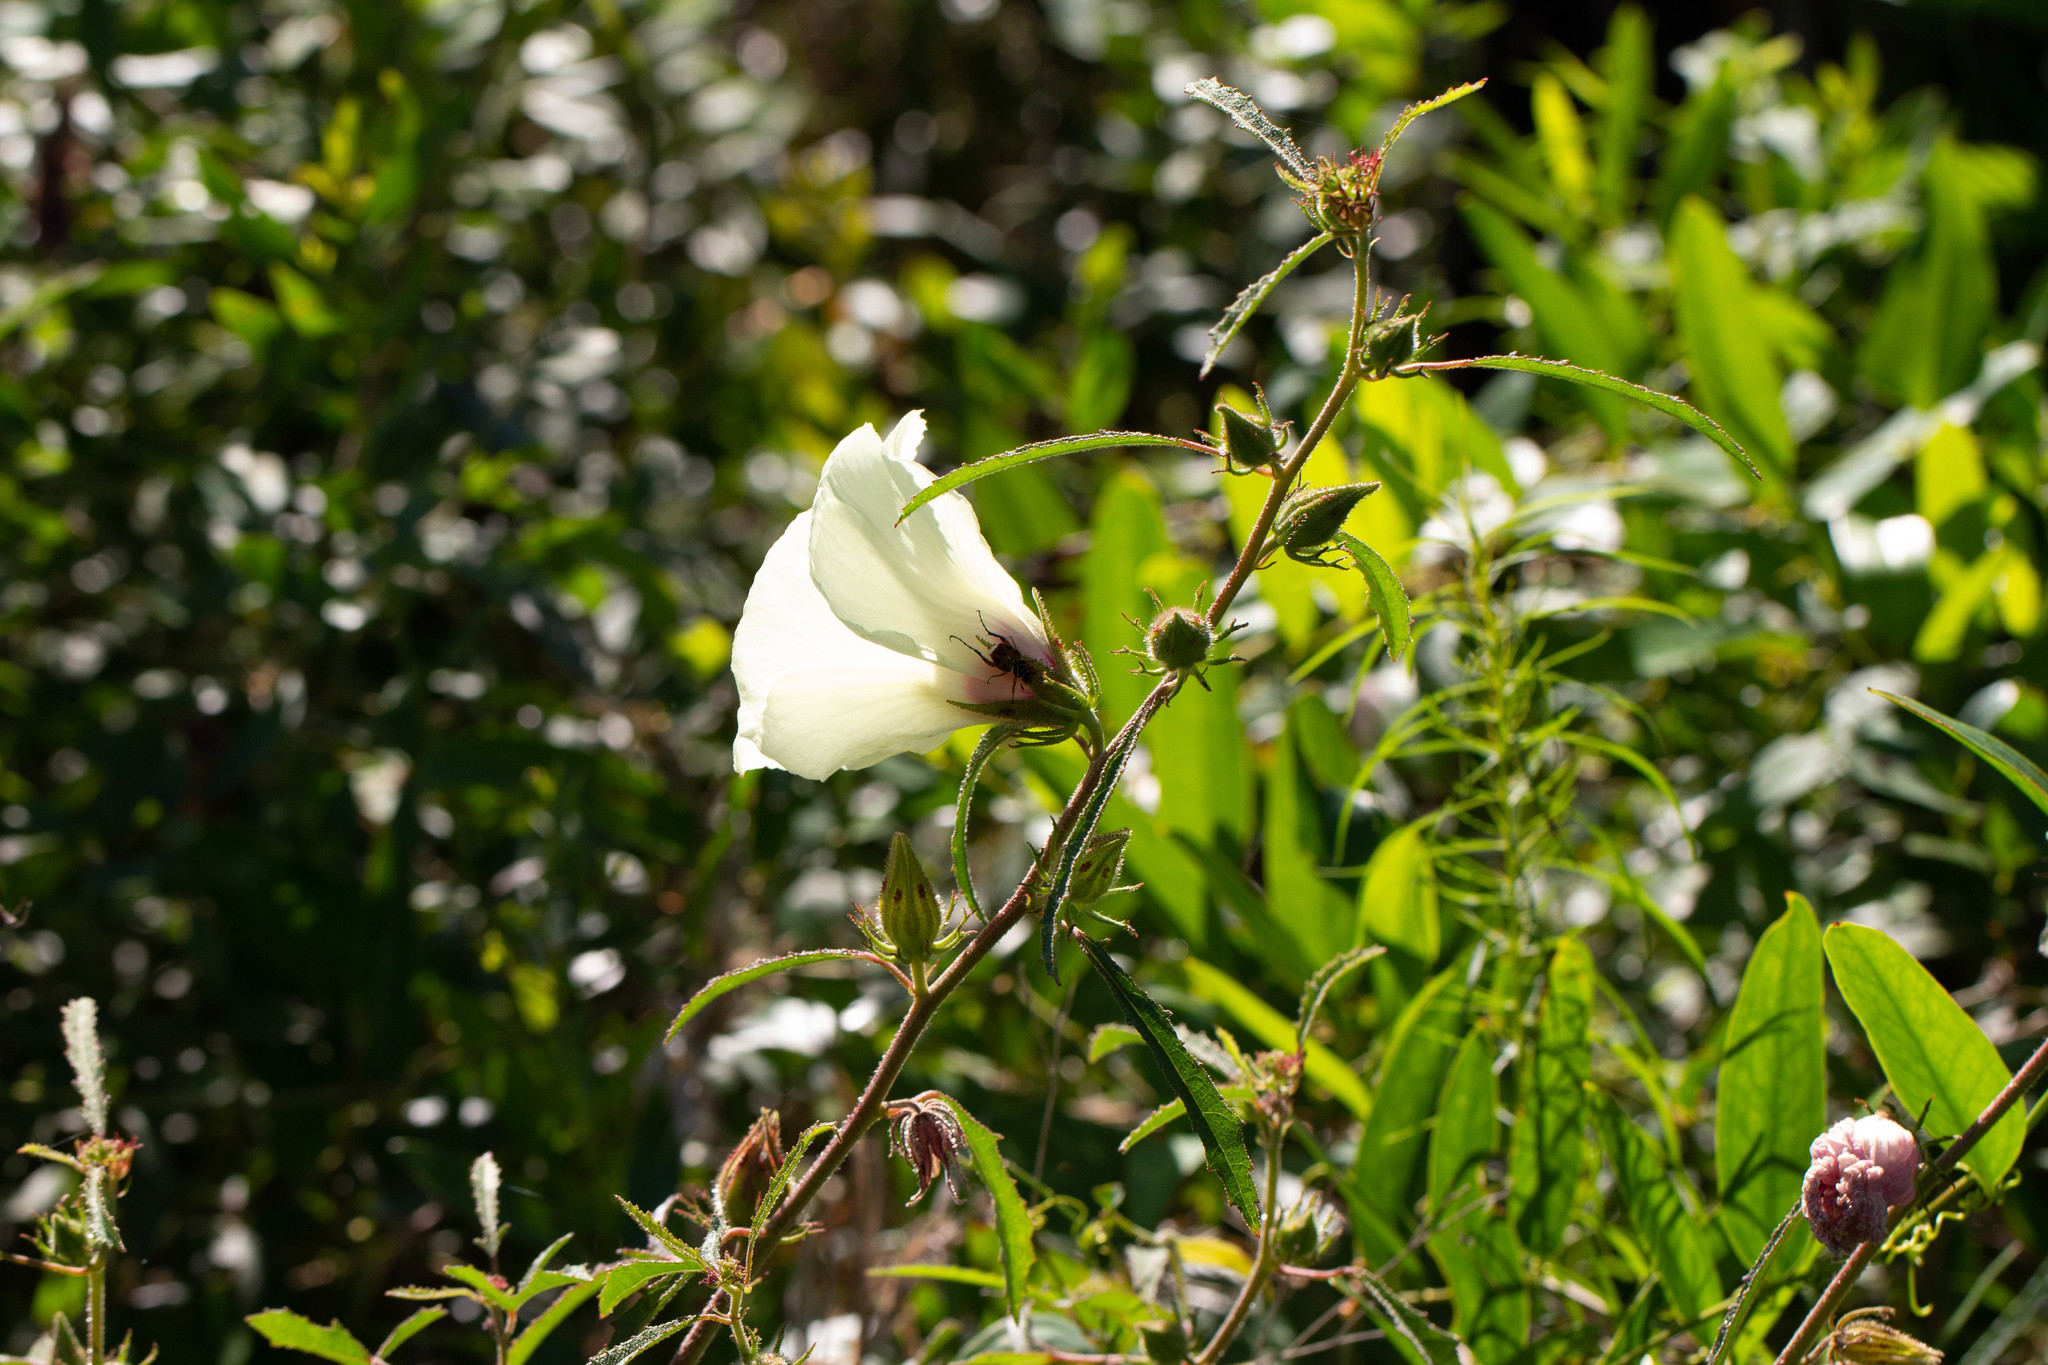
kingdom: Plantae
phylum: Tracheophyta
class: Magnoliopsida
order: Malvales
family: Malvaceae
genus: Hibiscus
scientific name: Hibiscus aculeatus
